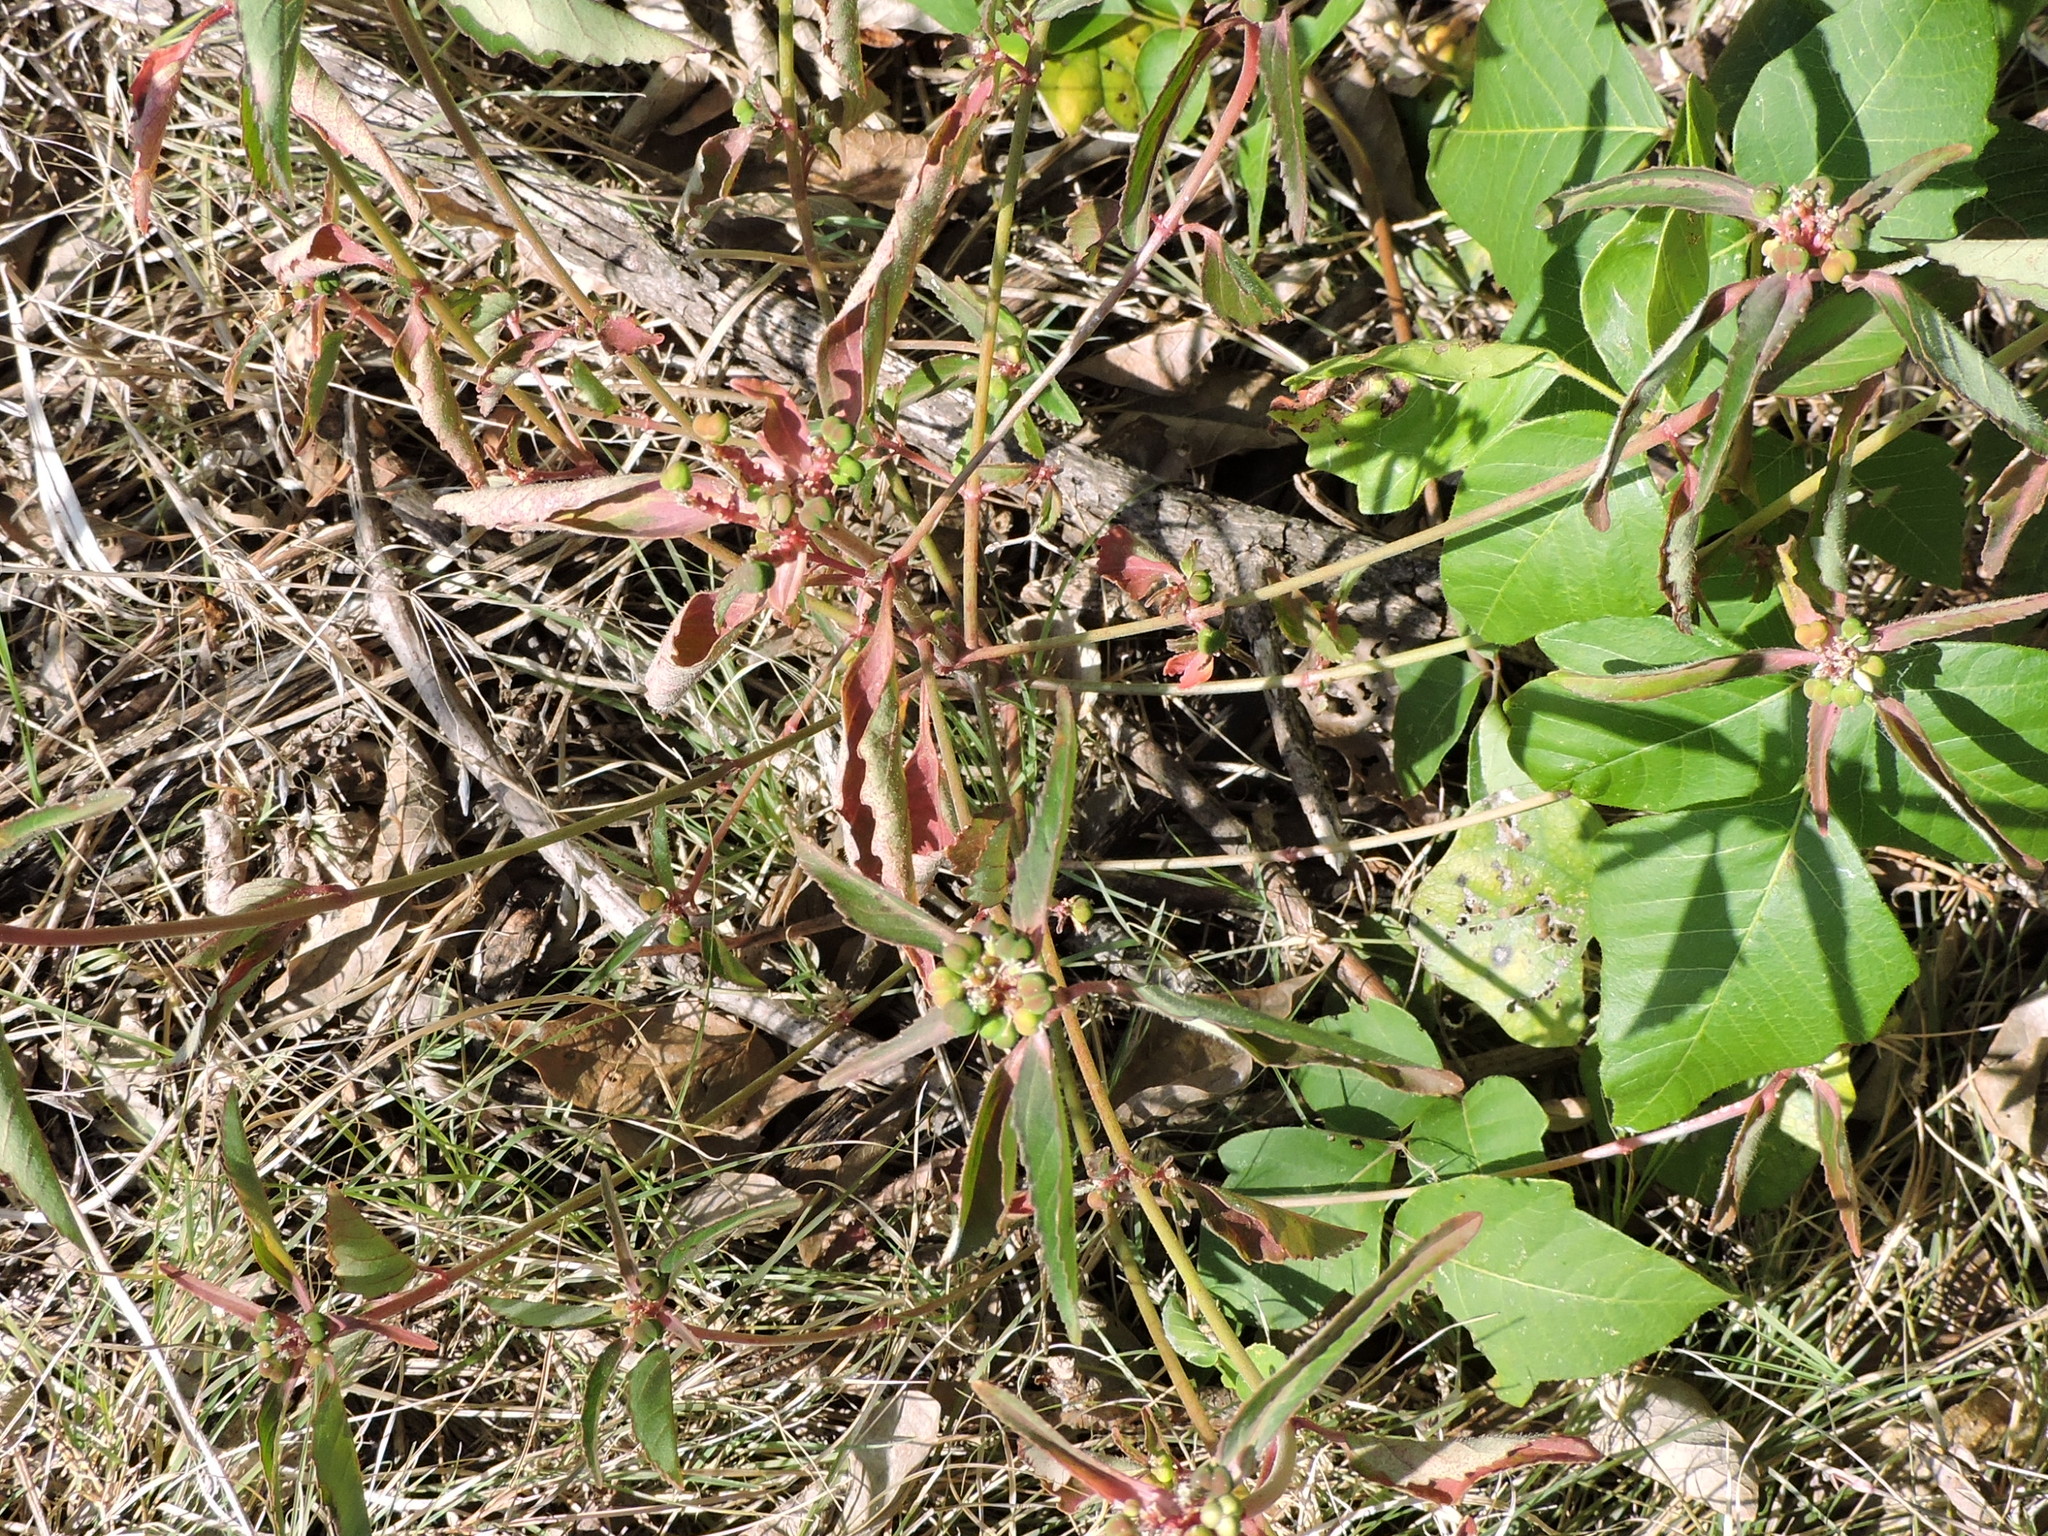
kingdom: Plantae
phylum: Tracheophyta
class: Magnoliopsida
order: Malpighiales
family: Euphorbiaceae
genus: Euphorbia
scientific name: Euphorbia dentata
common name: Dentate spurge
